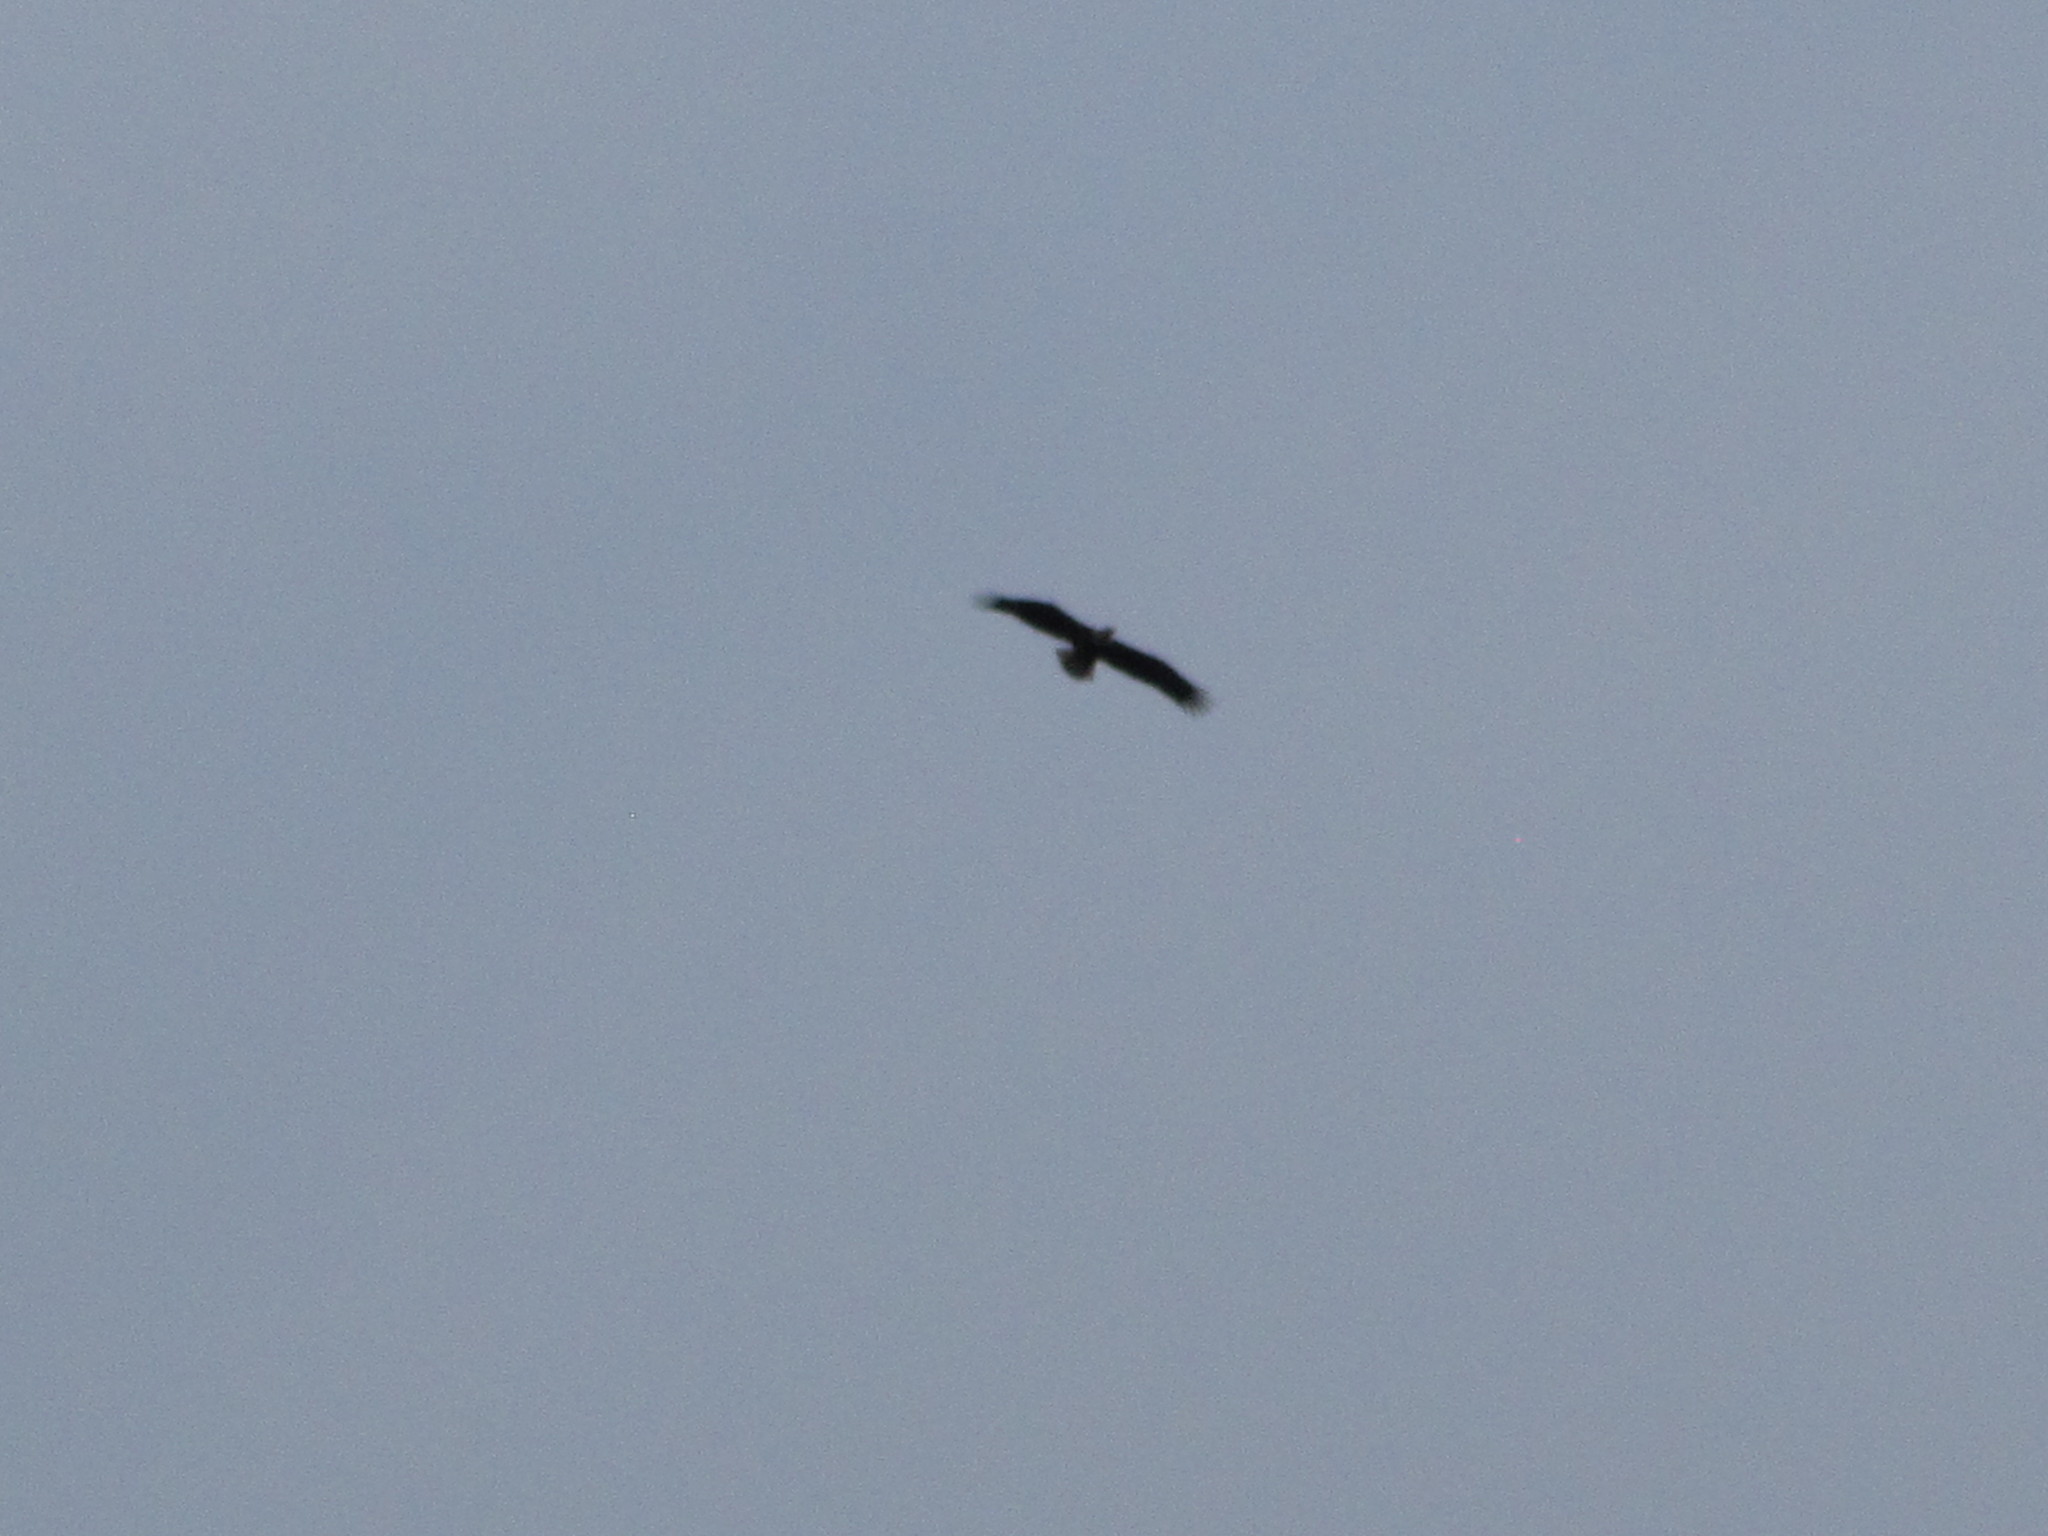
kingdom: Animalia
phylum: Chordata
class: Aves
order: Accipitriformes
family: Accipitridae
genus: Haliaeetus
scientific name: Haliaeetus leucocephalus
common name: Bald eagle
